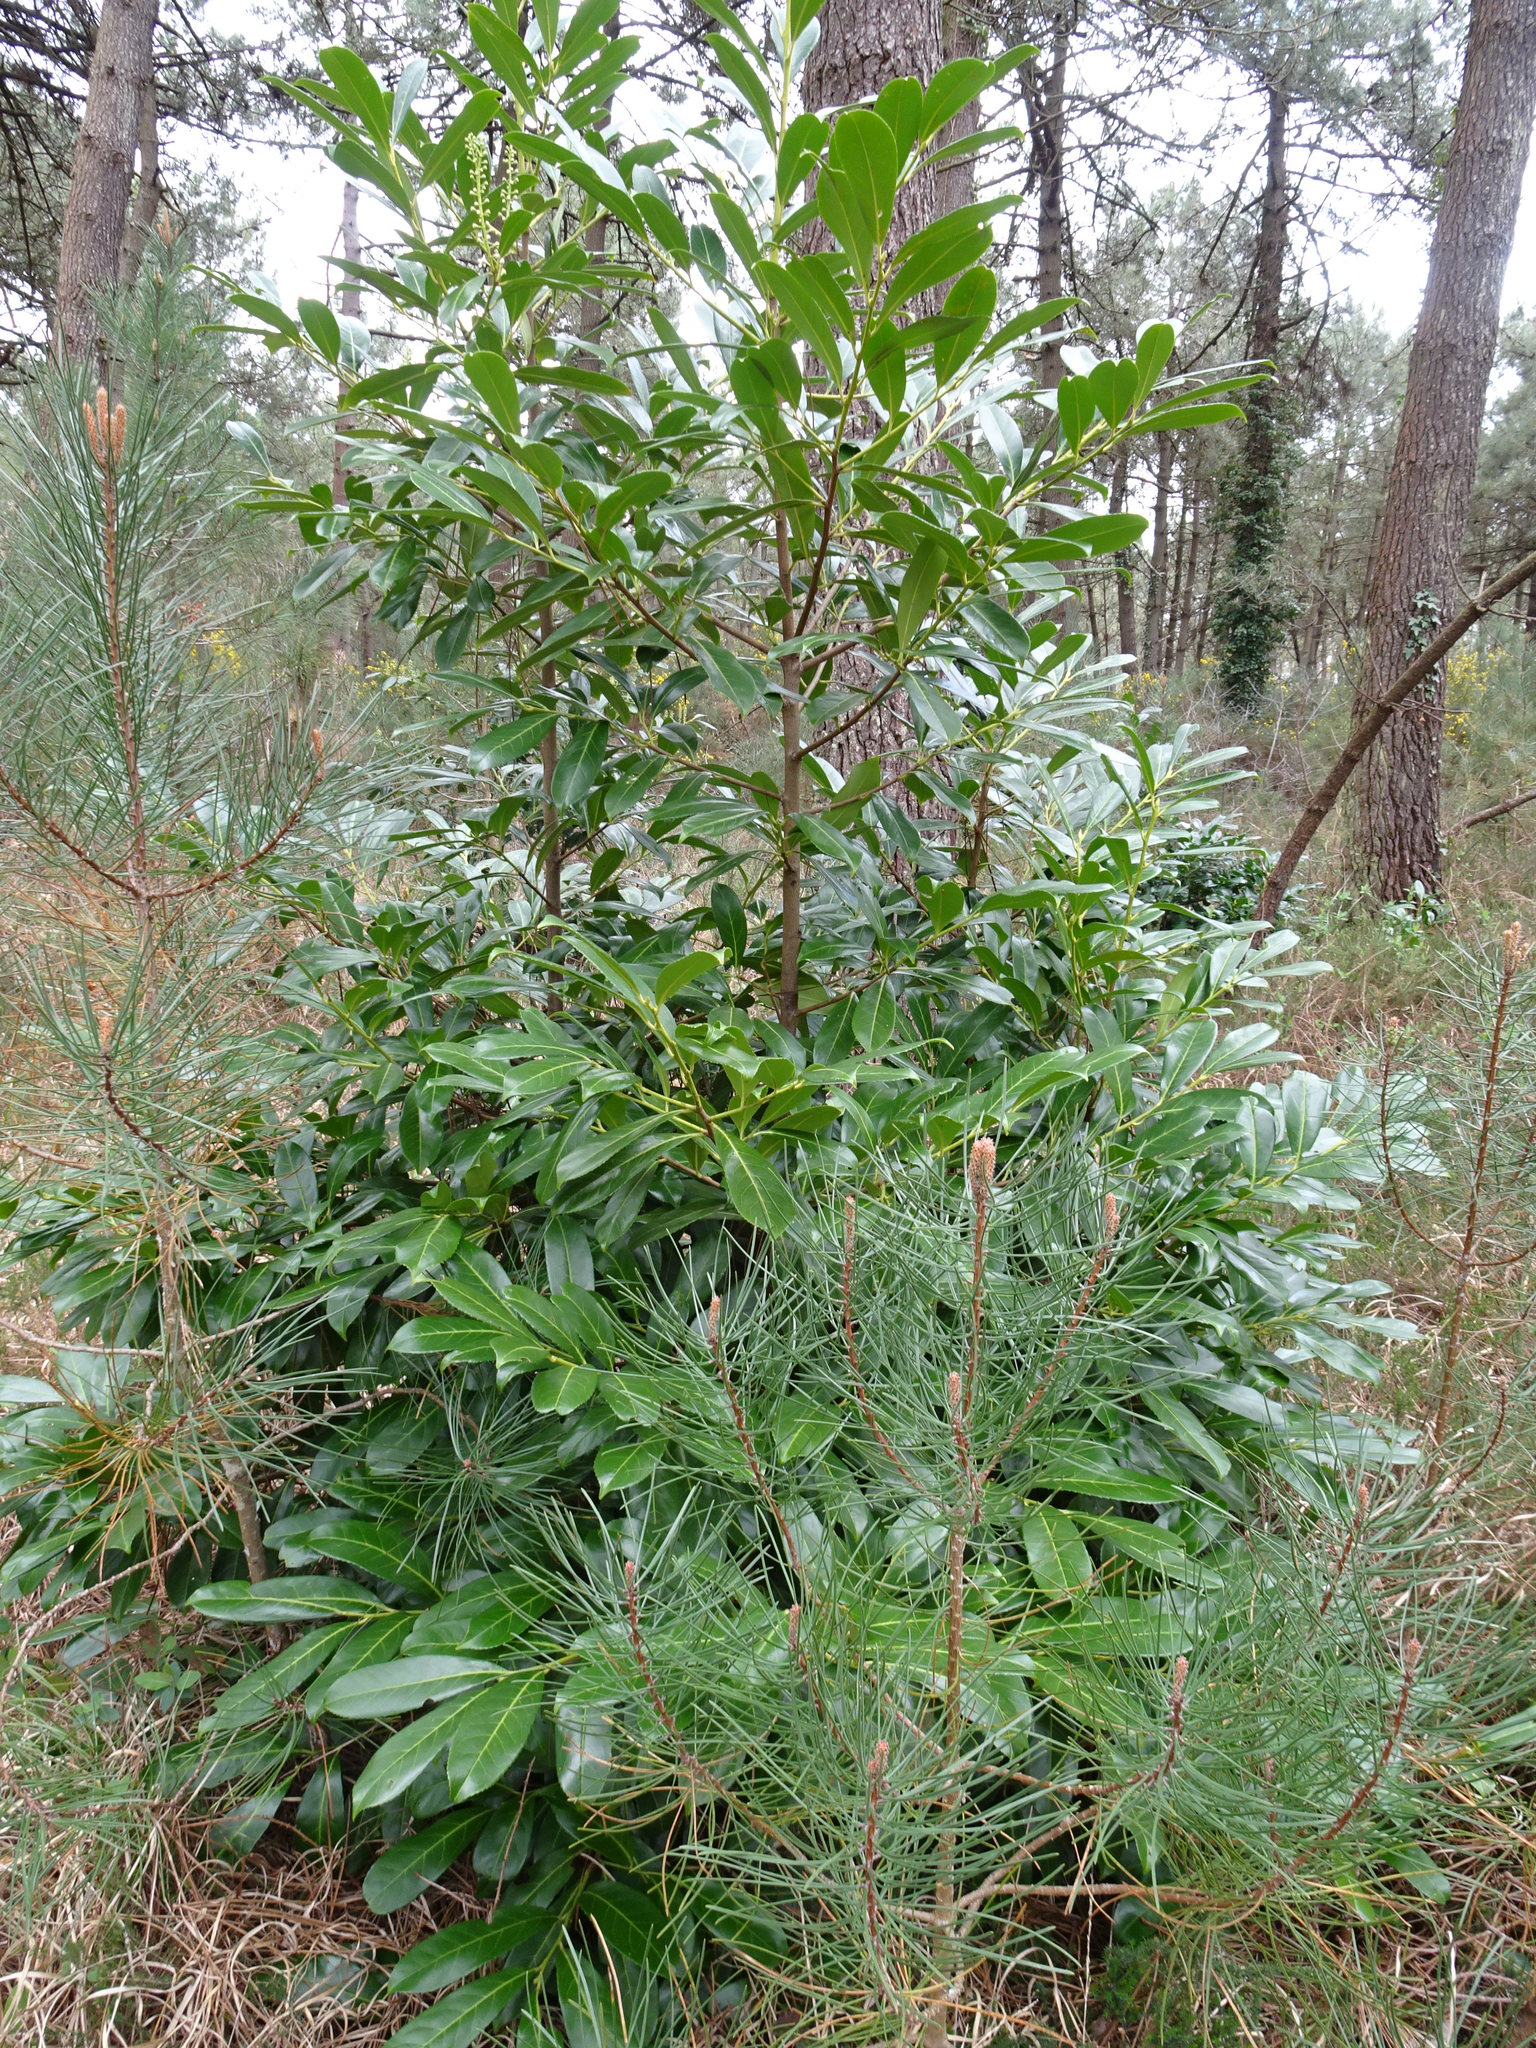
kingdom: Plantae
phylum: Tracheophyta
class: Magnoliopsida
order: Rosales
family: Rosaceae
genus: Prunus
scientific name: Prunus laurocerasus
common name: Cherry laurel
